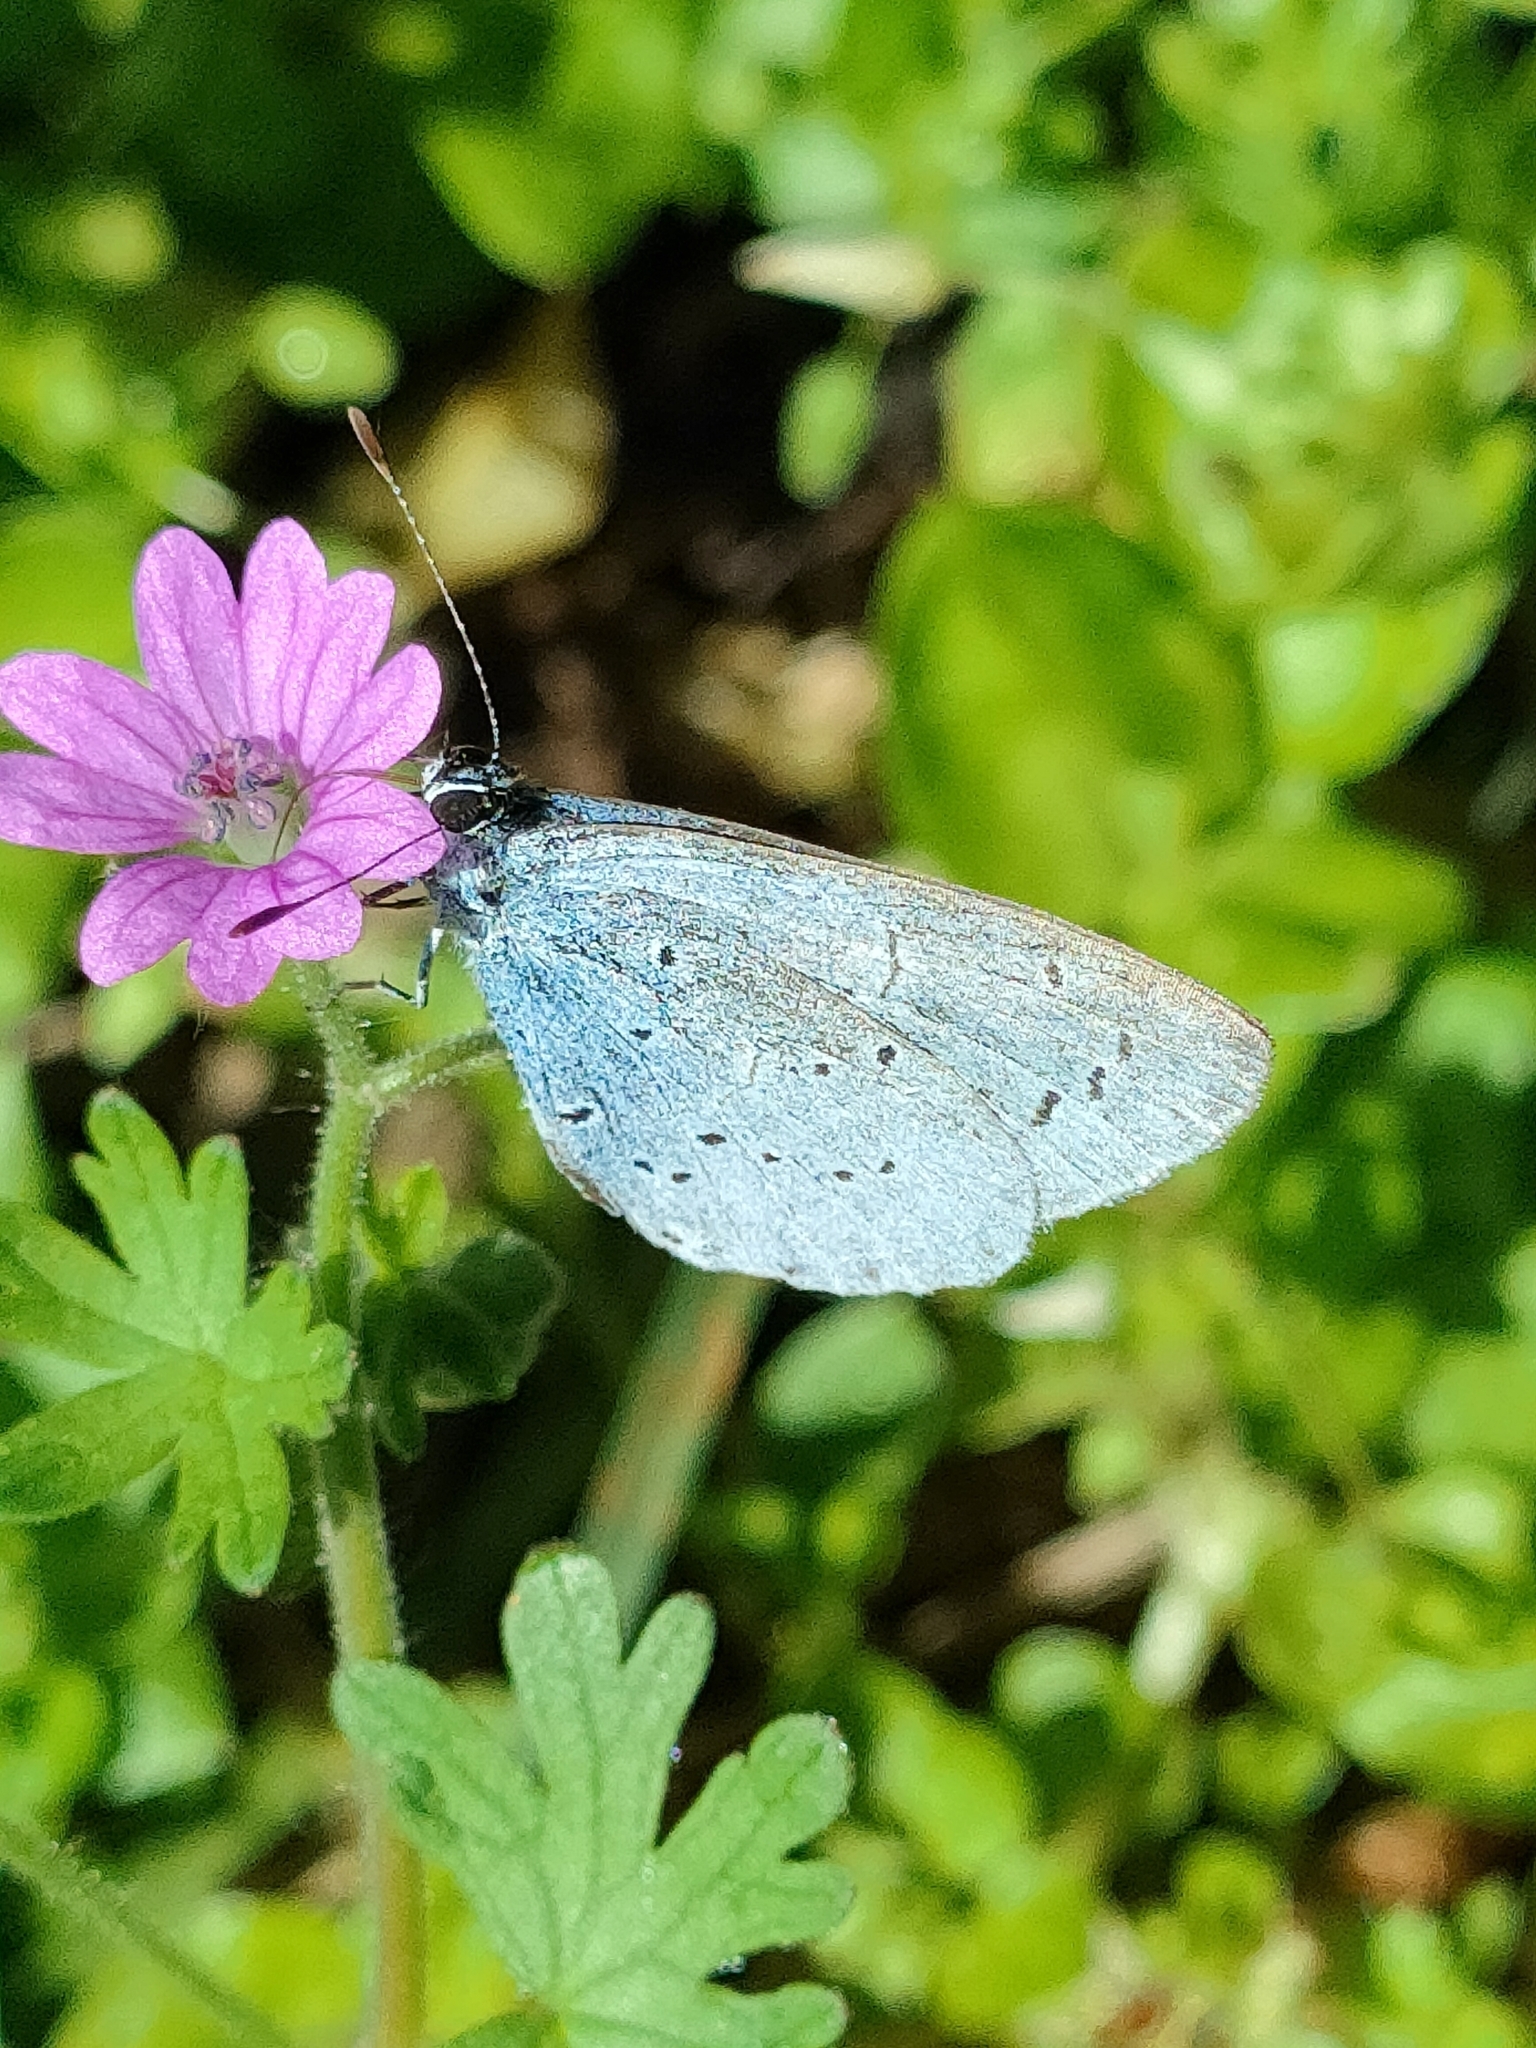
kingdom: Animalia
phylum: Arthropoda
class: Insecta
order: Lepidoptera
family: Lycaenidae
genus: Celastrina
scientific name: Celastrina argiolus
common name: Holly blue
